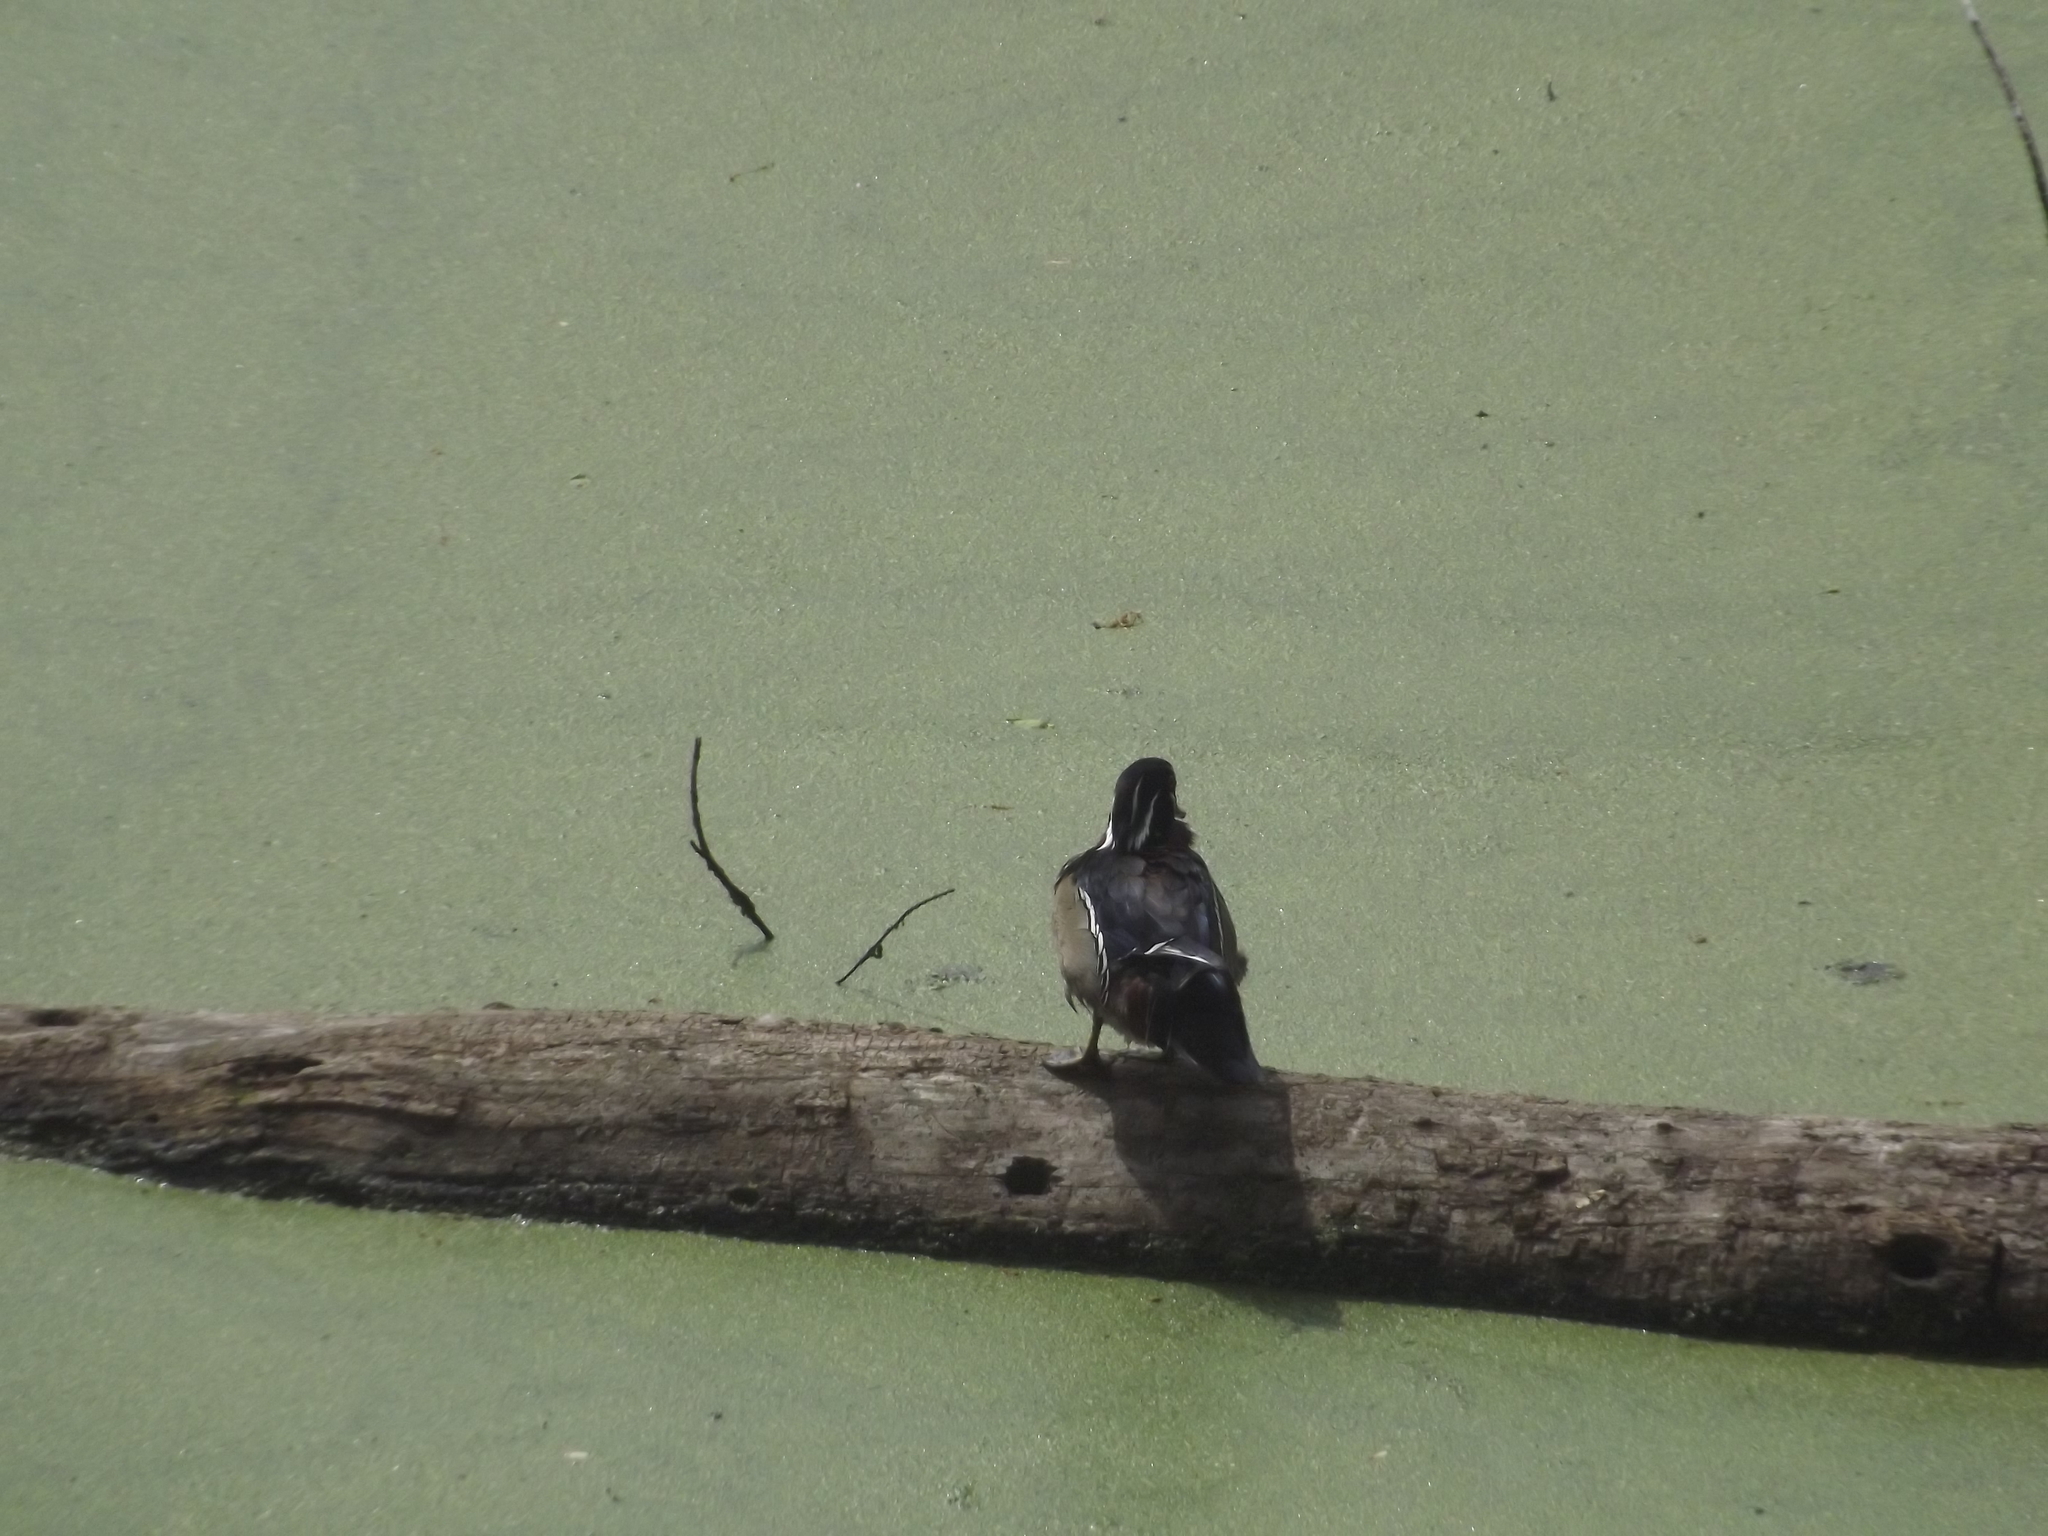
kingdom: Animalia
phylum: Chordata
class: Aves
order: Anseriformes
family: Anatidae
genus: Aix
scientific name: Aix sponsa
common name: Wood duck
